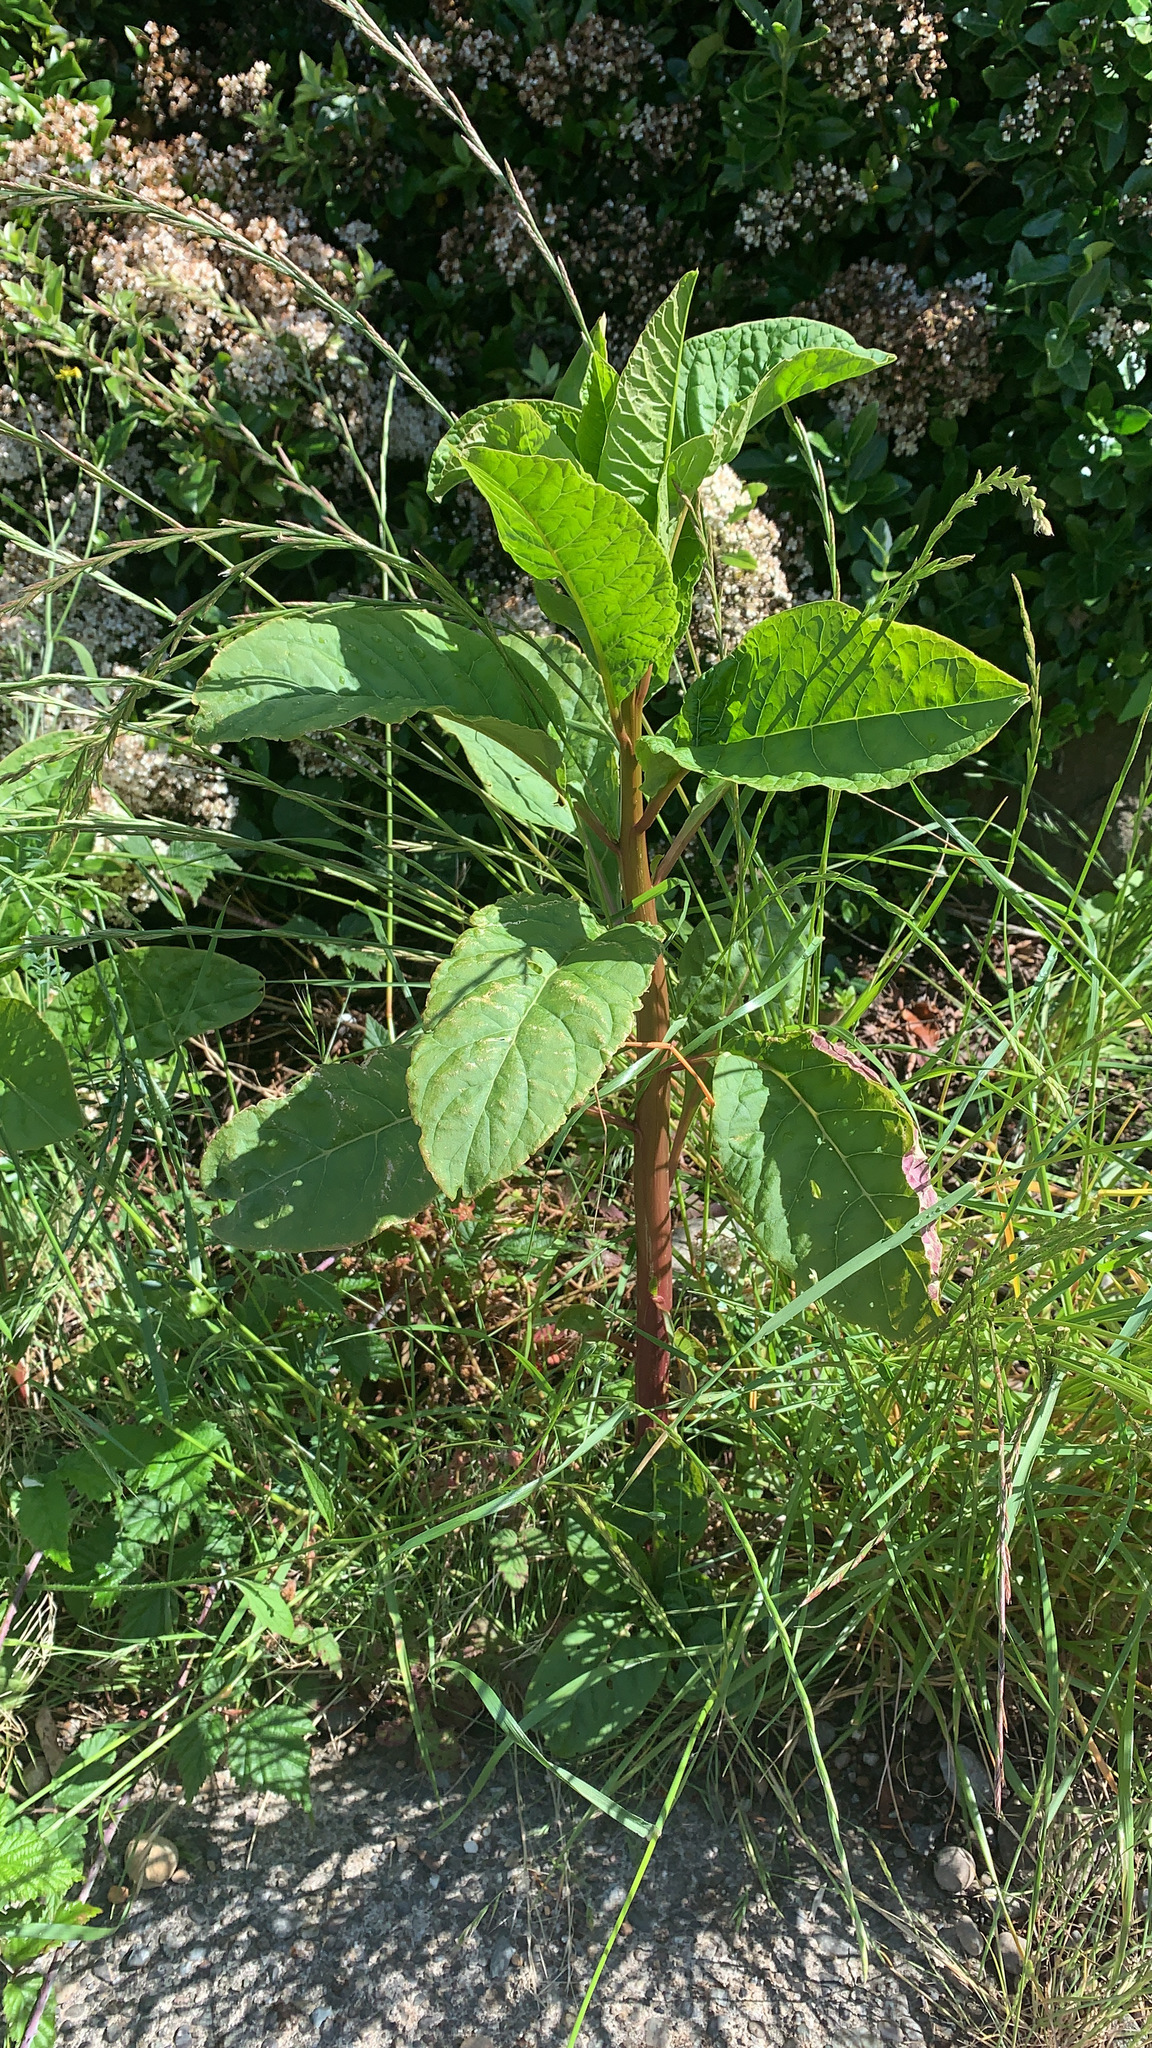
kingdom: Plantae
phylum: Tracheophyta
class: Magnoliopsida
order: Caryophyllales
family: Phytolaccaceae
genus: Phytolacca
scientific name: Phytolacca americana
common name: American pokeweed
